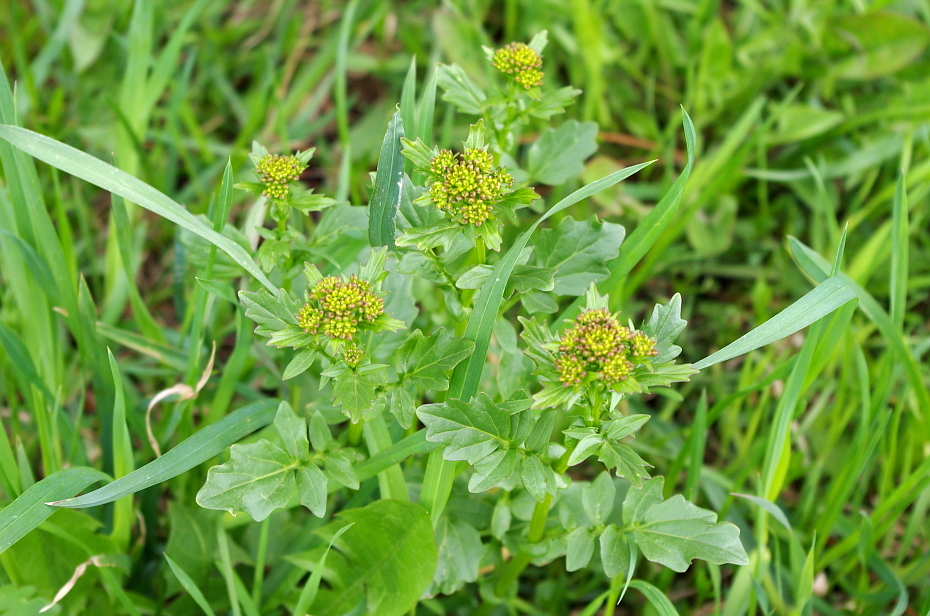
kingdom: Plantae
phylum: Tracheophyta
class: Magnoliopsida
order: Brassicales
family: Brassicaceae
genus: Barbarea
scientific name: Barbarea vulgaris
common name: Cressy-greens
